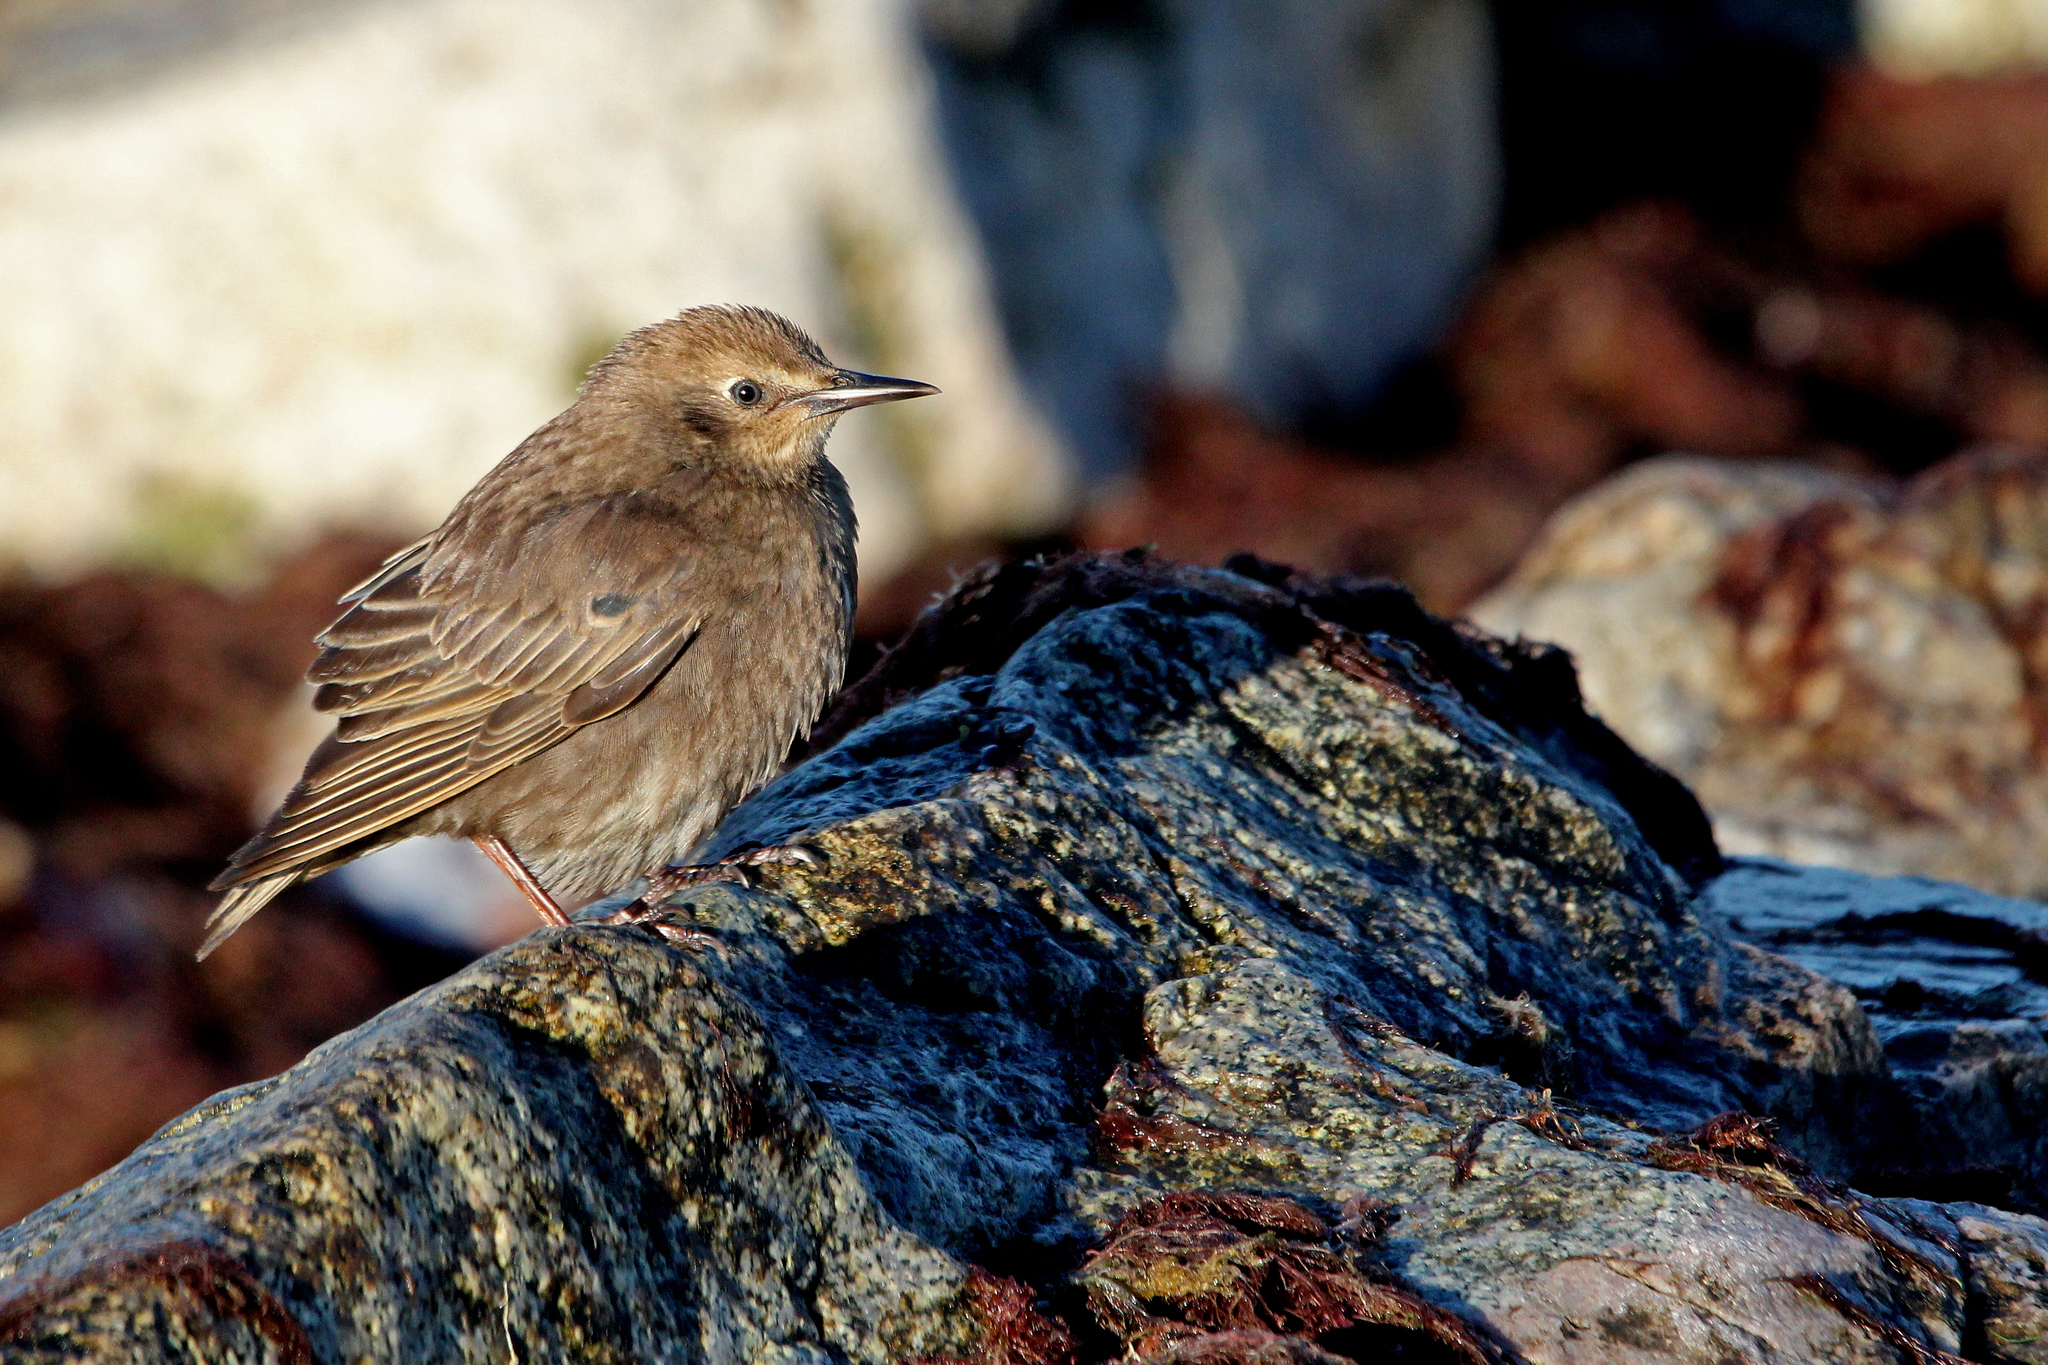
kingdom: Animalia
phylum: Chordata
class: Aves
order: Passeriformes
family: Sturnidae
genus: Sturnus
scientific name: Sturnus vulgaris
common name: Common starling
